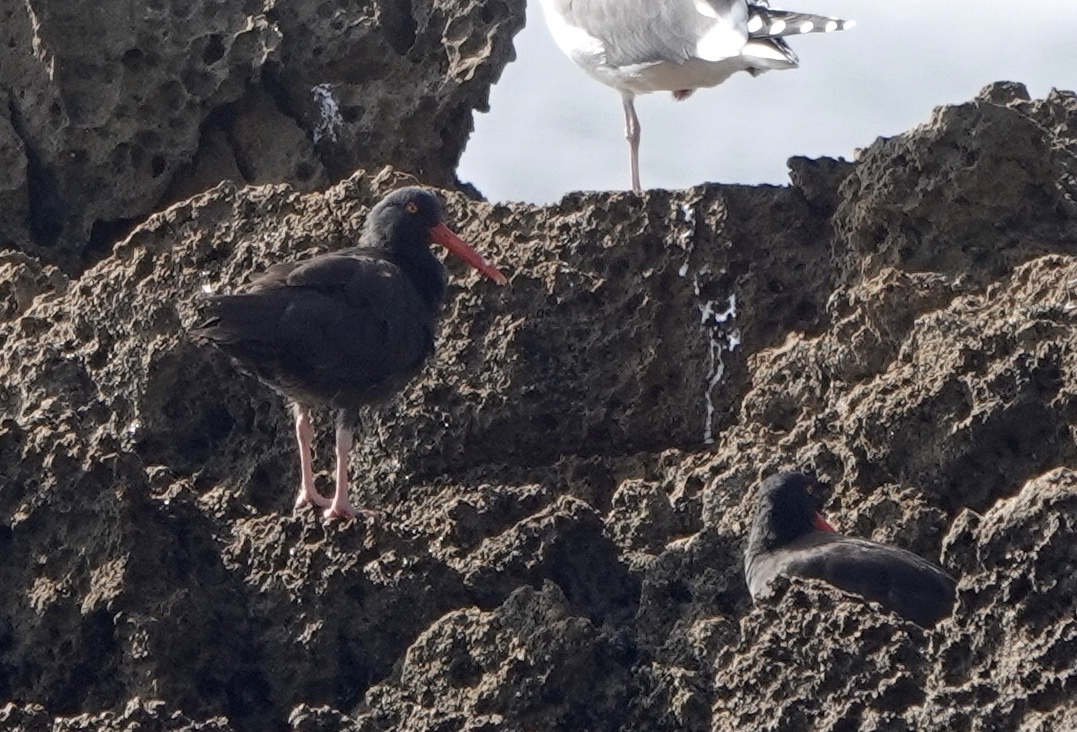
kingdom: Animalia
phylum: Chordata
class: Aves
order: Charadriiformes
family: Haematopodidae
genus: Haematopus
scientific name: Haematopus bachmani
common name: Black oystercatcher
